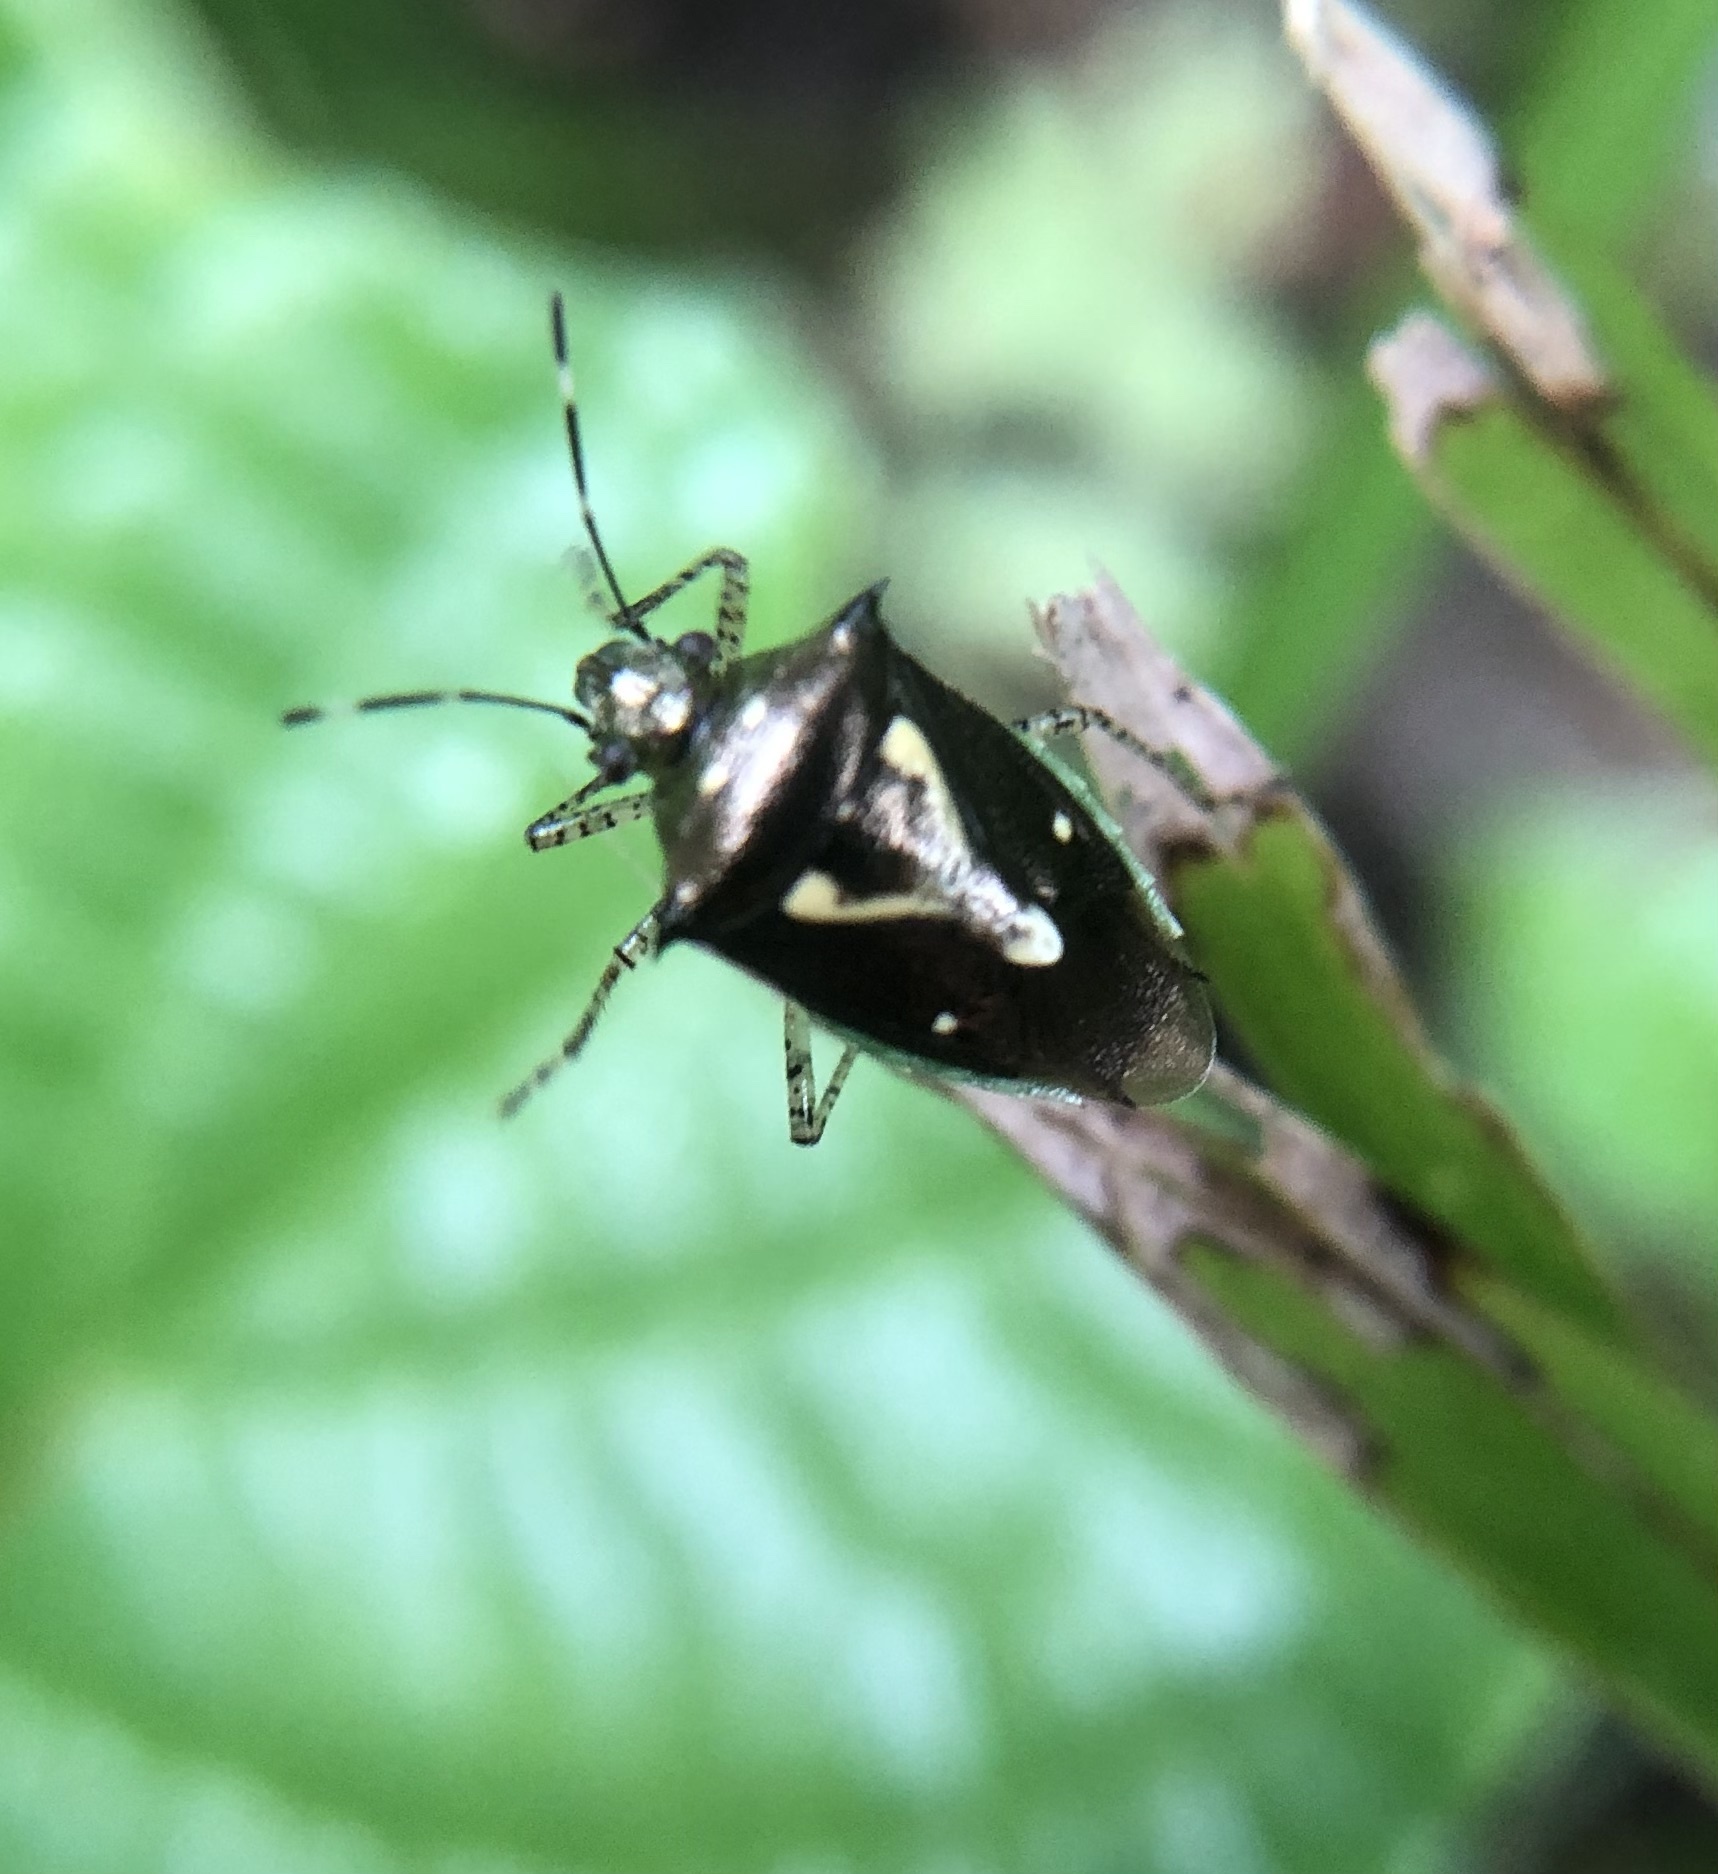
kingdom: Animalia
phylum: Arthropoda
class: Insecta
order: Hemiptera
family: Pentatomidae
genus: Mormidea
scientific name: Mormidea ypsilon
